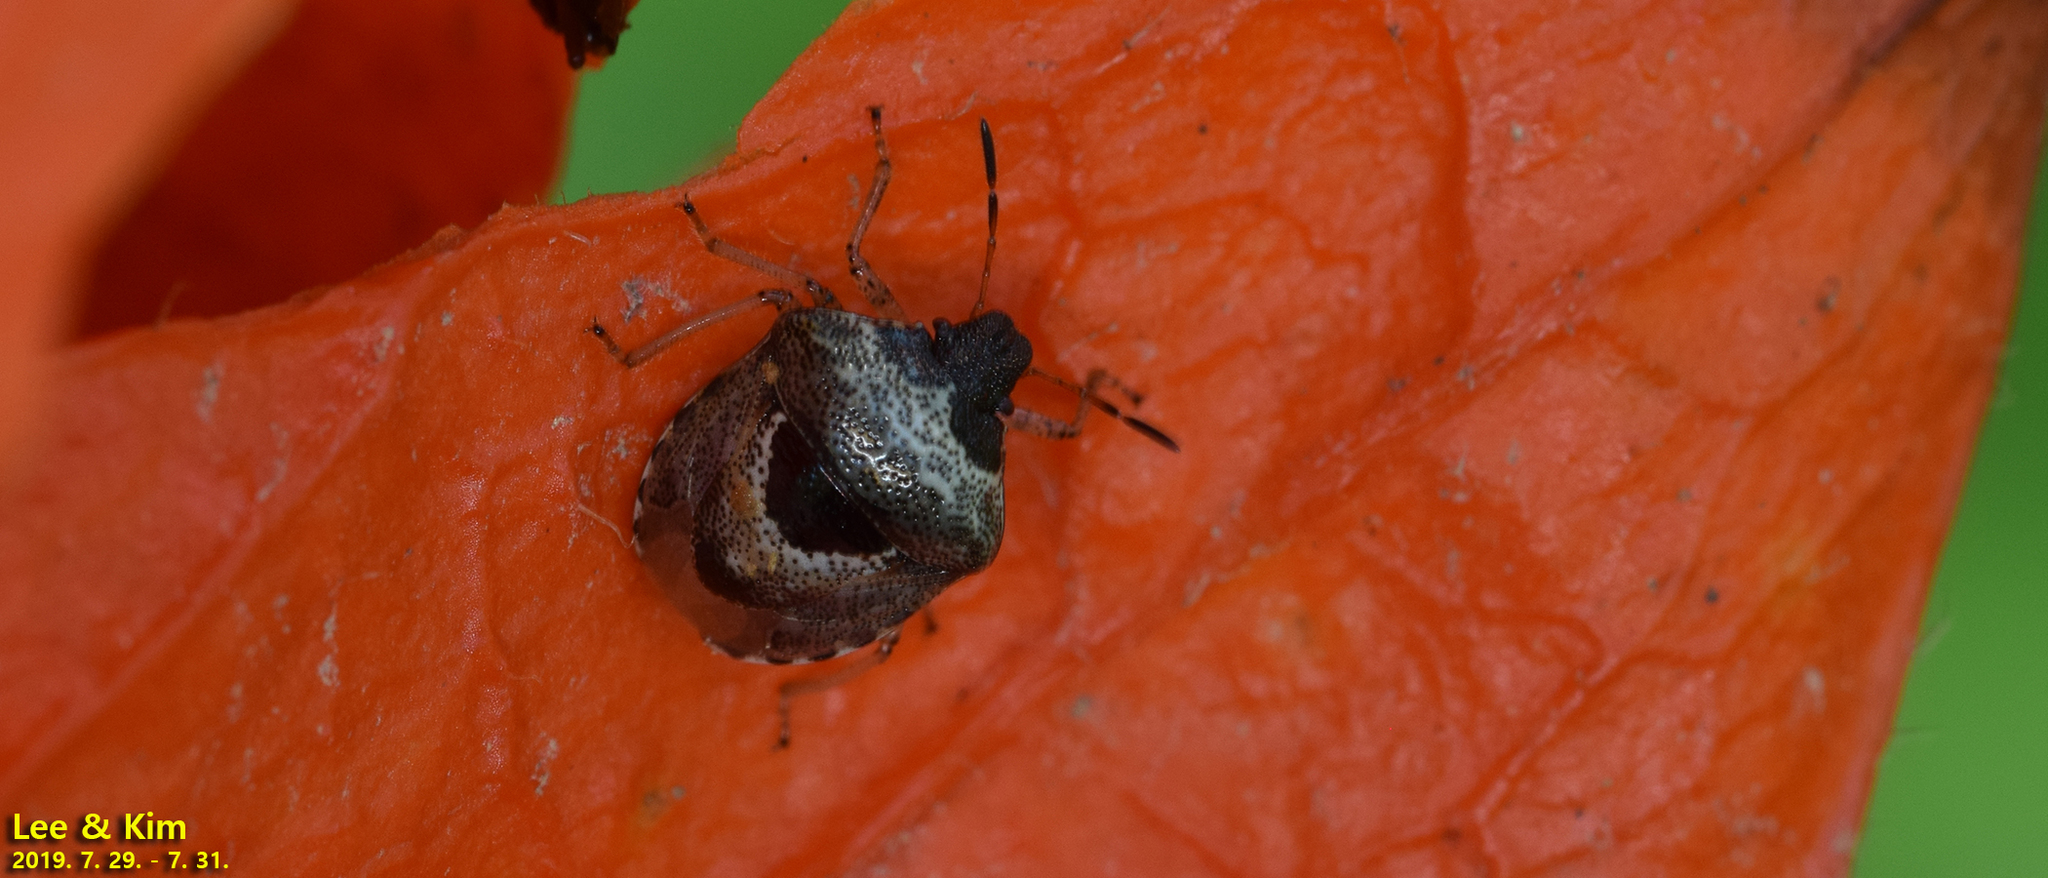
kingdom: Animalia
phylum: Arthropoda
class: Insecta
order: Hemiptera
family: Pentatomidae
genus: Stagonomus
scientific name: Stagonomus gibbosus
